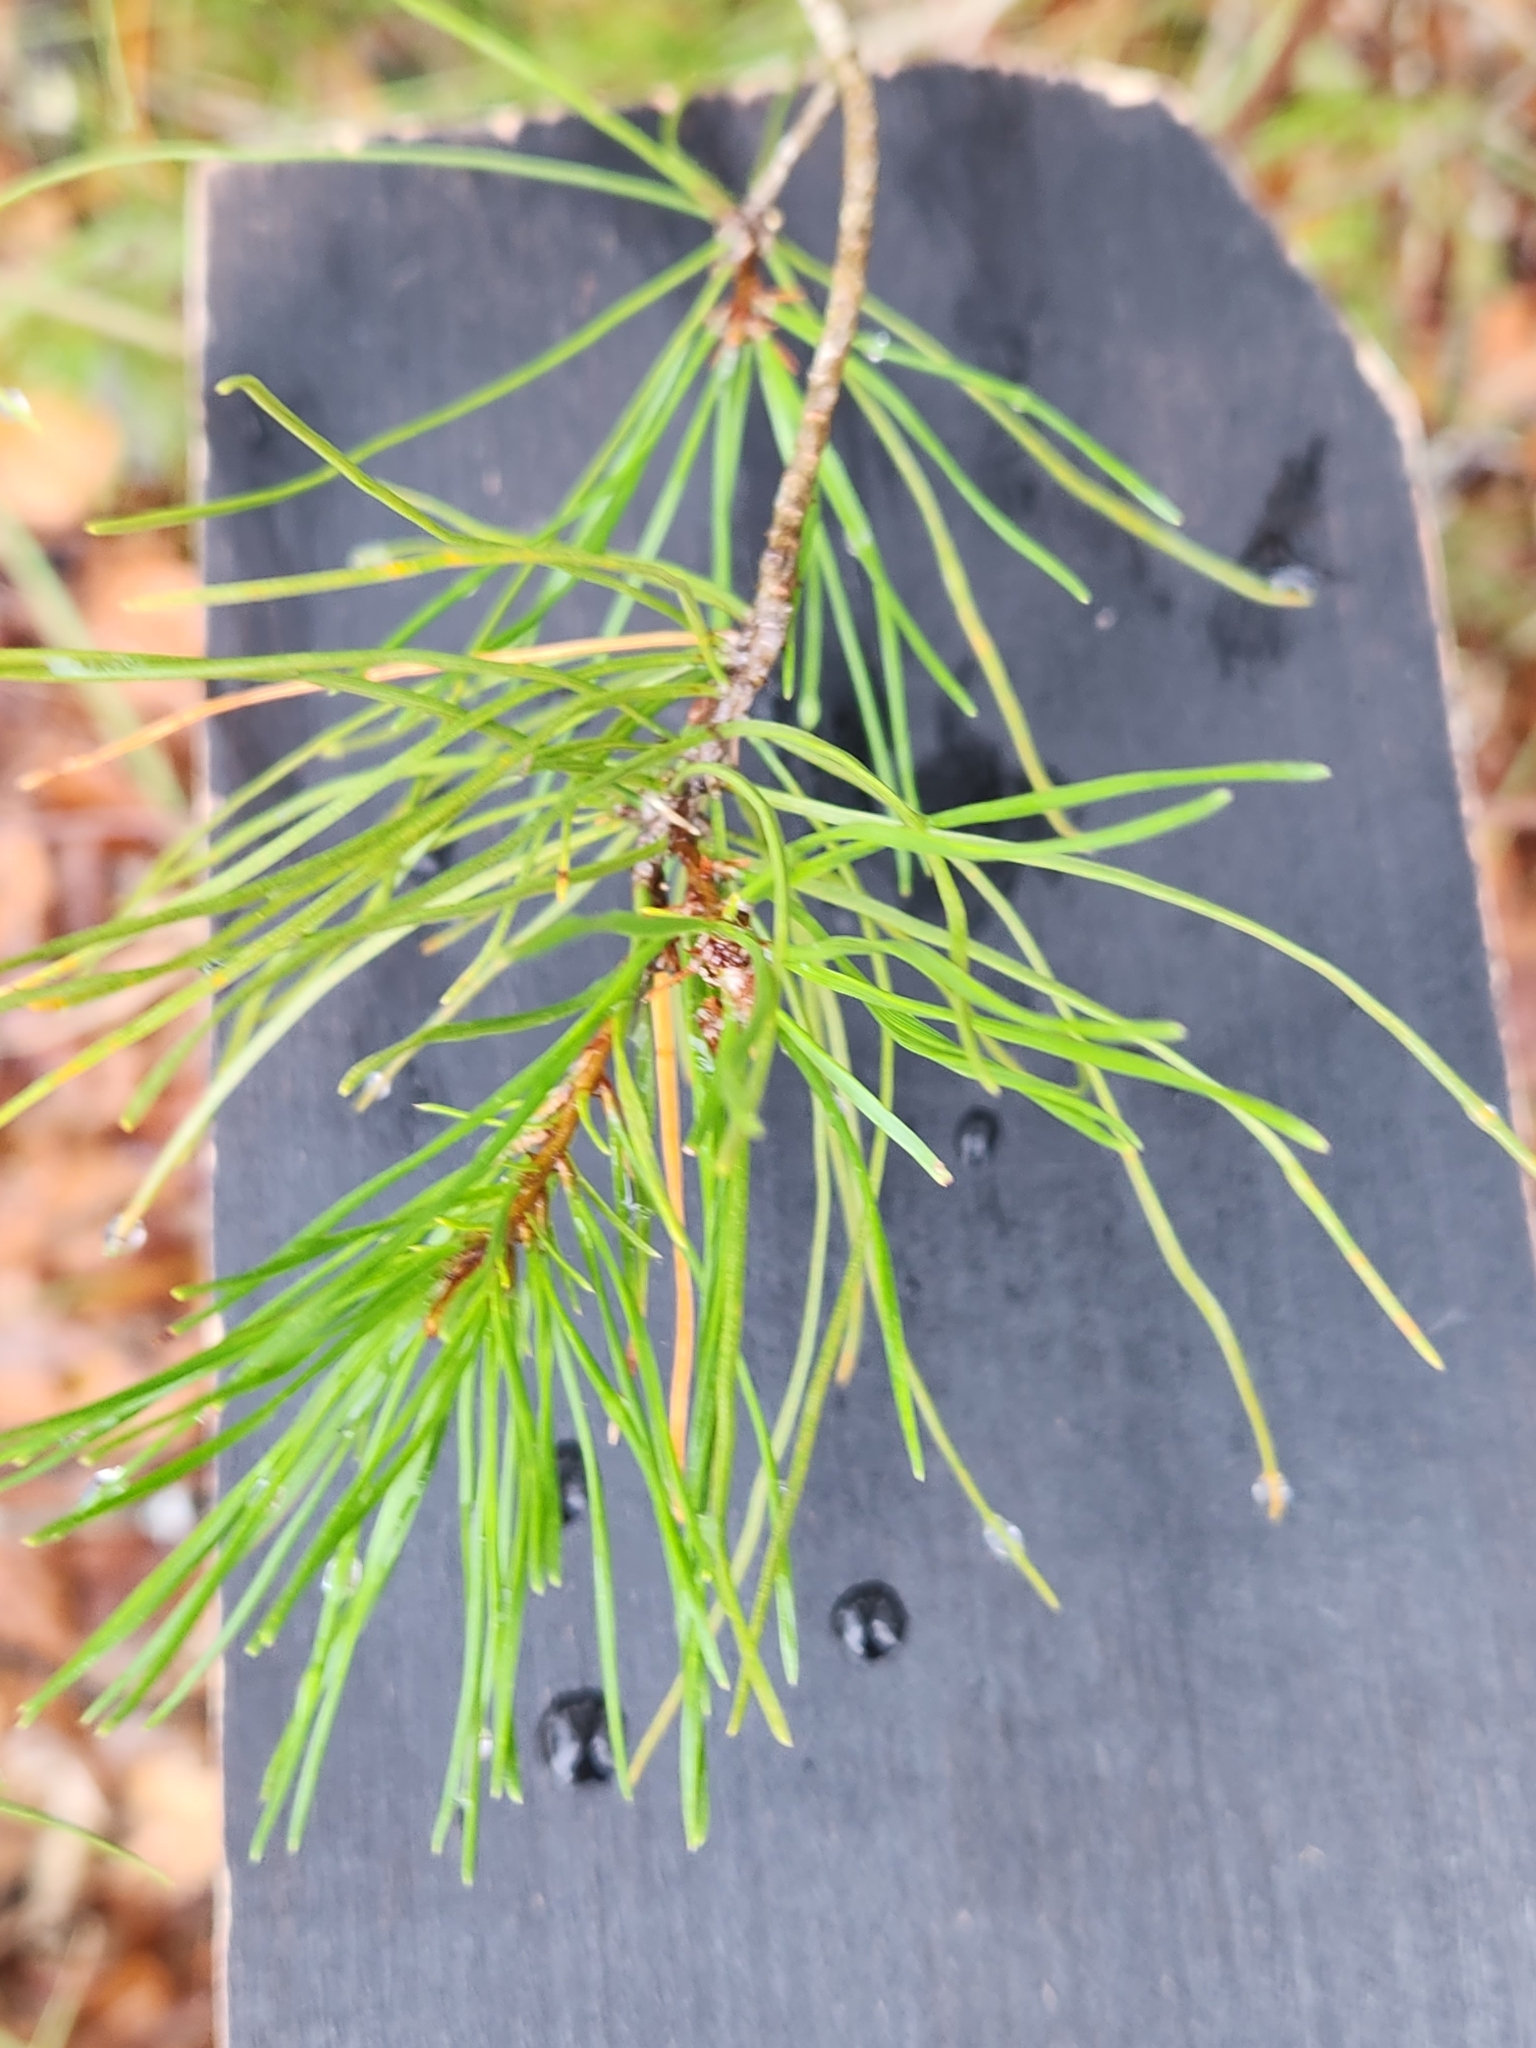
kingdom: Plantae
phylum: Tracheophyta
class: Pinopsida
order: Pinales
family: Pinaceae
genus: Pinus
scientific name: Pinus clausa
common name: Sand pine
